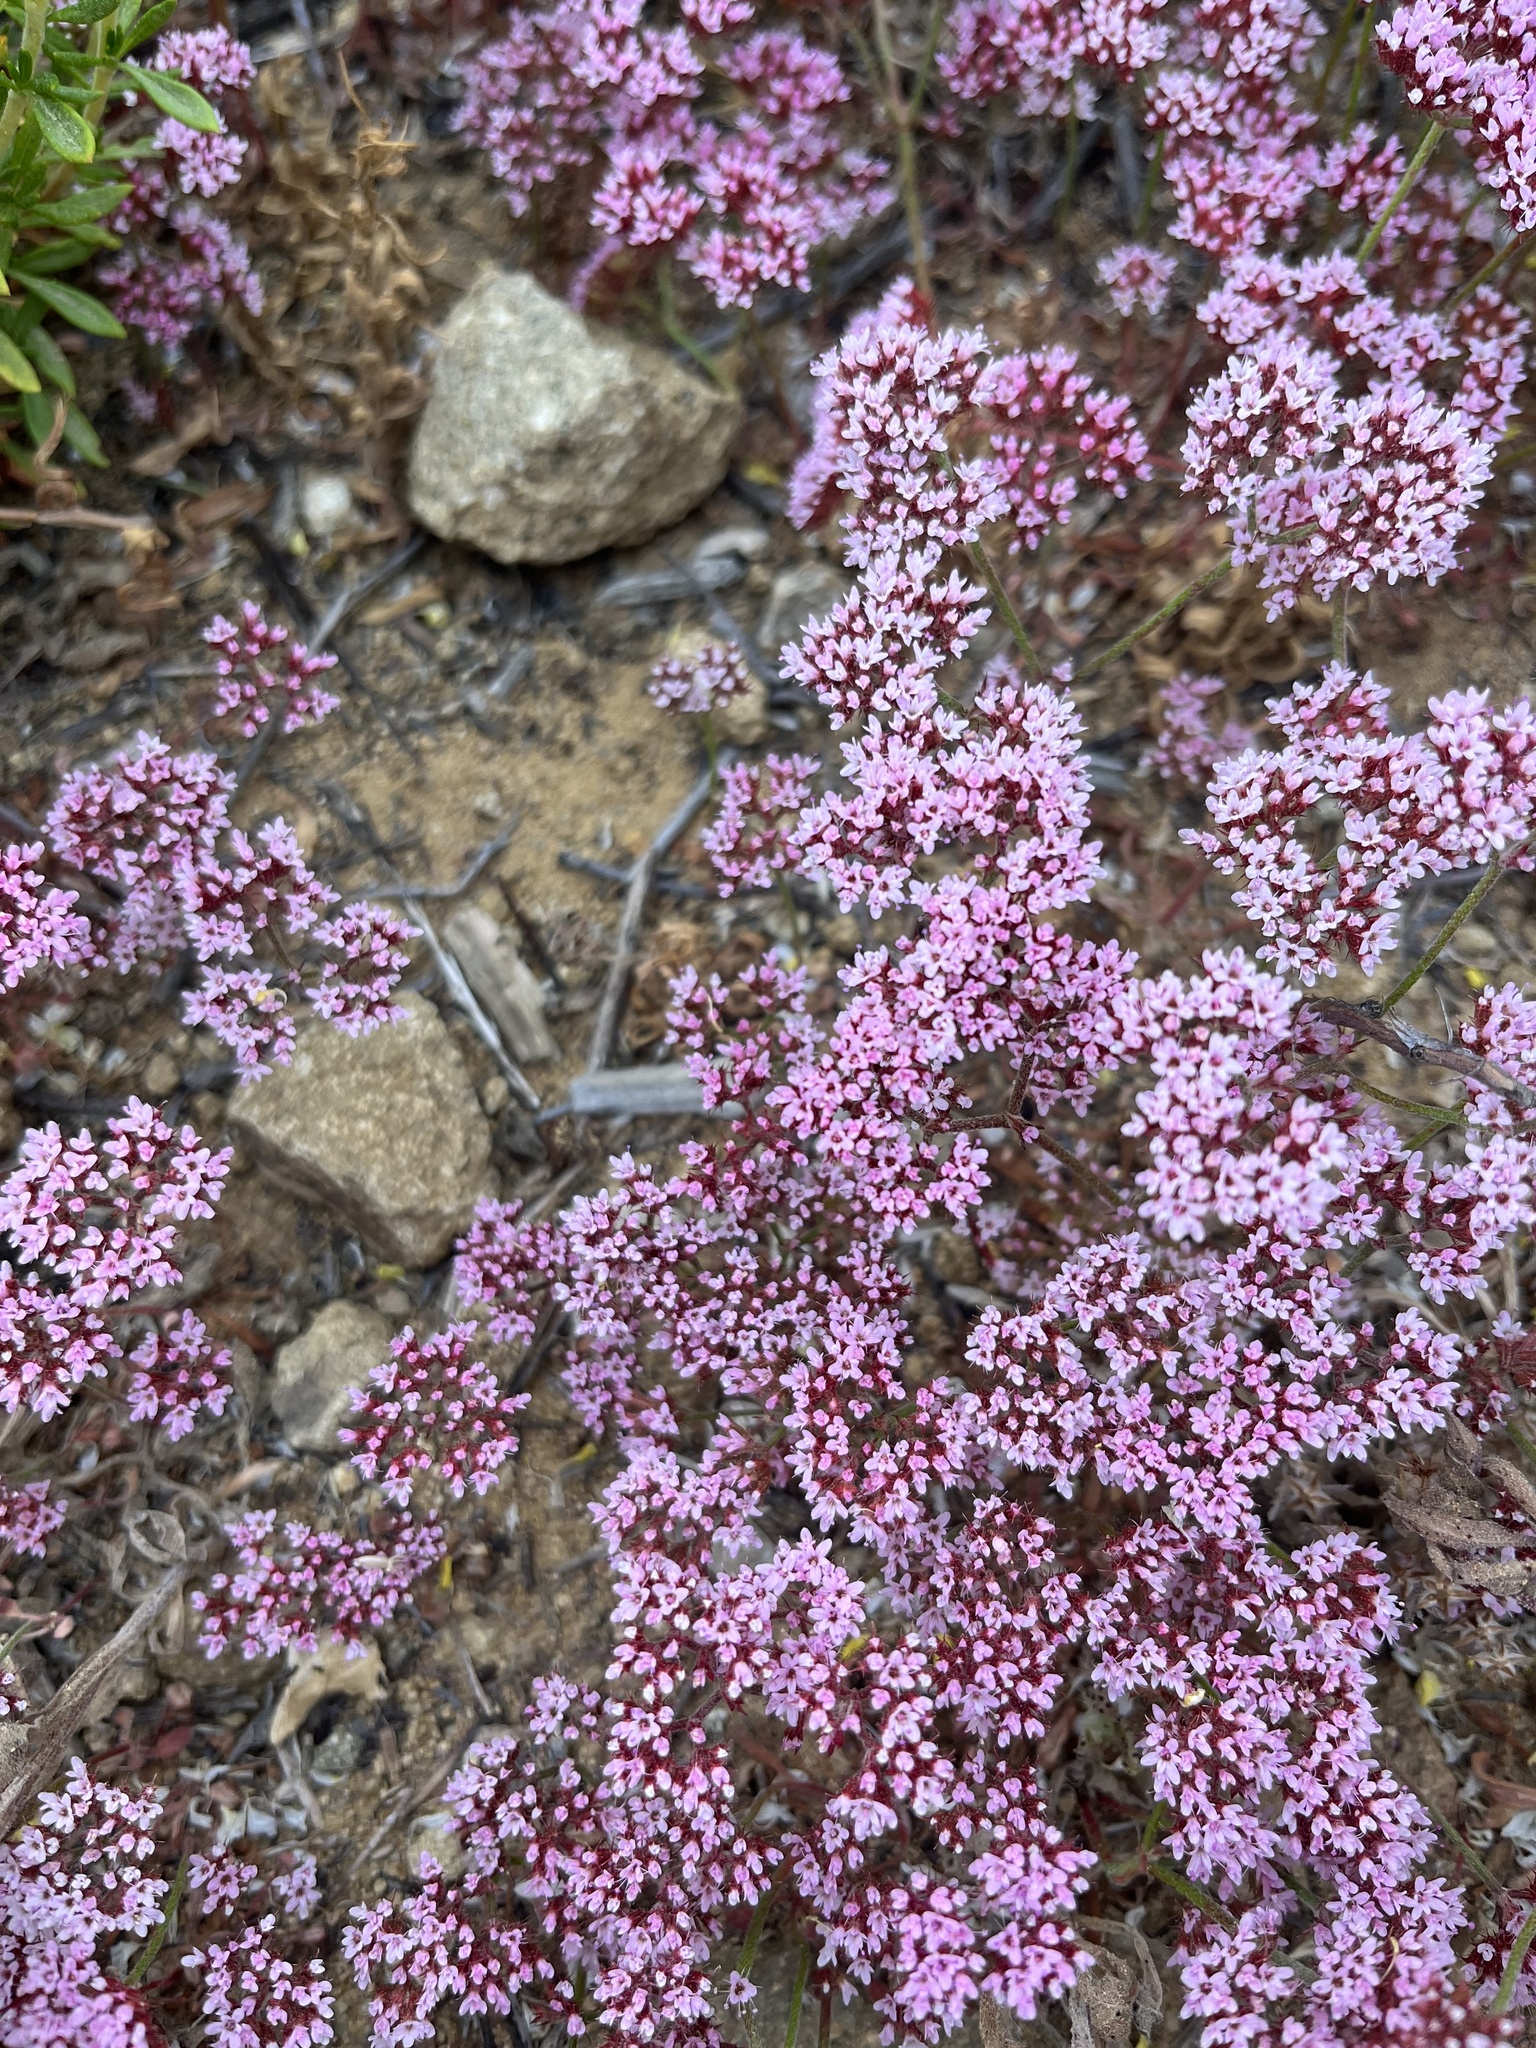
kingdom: Plantae
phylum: Tracheophyta
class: Magnoliopsida
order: Caryophyllales
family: Polygonaceae
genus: Chorizanthe
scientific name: Chorizanthe staticoides
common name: Turkish rugging
